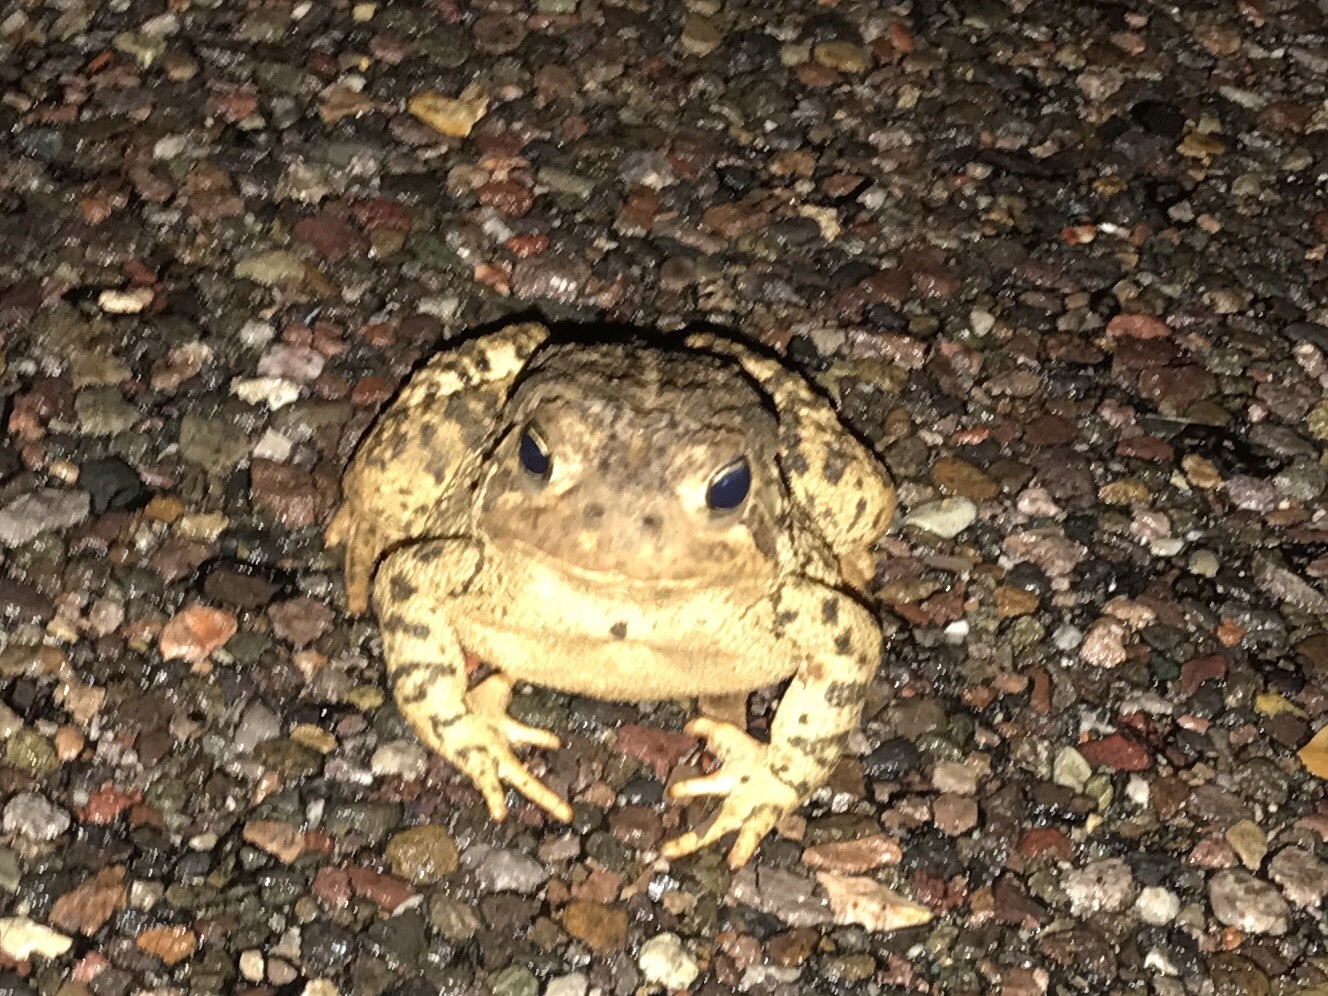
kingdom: Animalia
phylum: Chordata
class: Amphibia
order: Anura
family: Bufonidae
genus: Anaxyrus
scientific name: Anaxyrus woodhousii
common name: Woodhouse's toad
